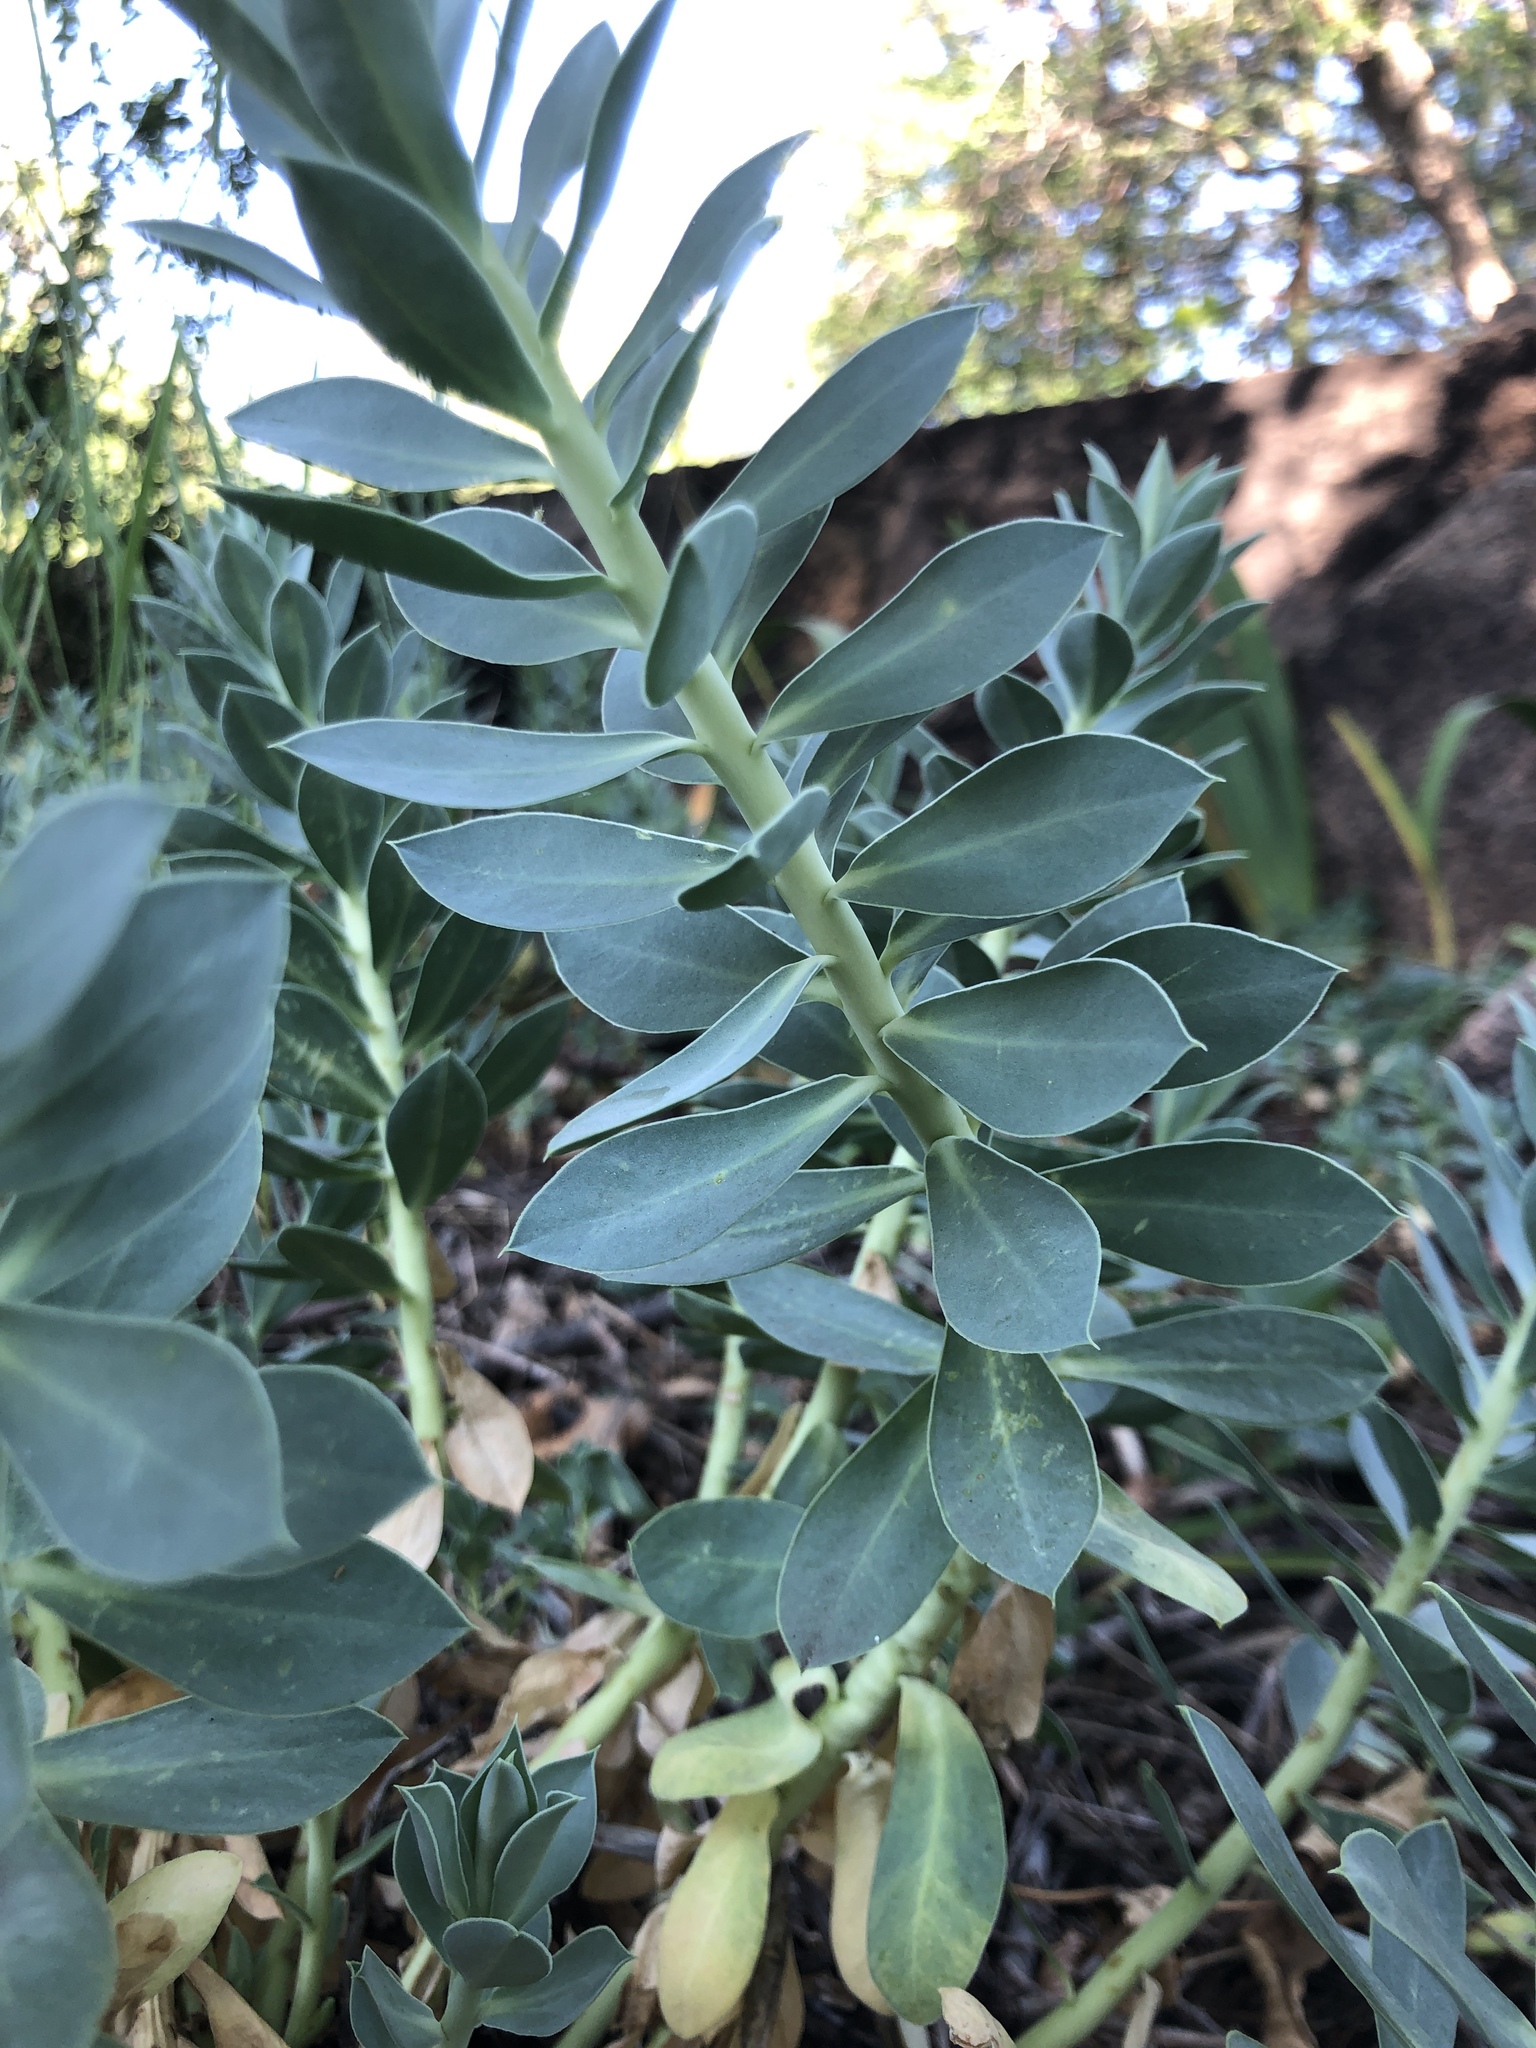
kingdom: Plantae
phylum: Tracheophyta
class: Magnoliopsida
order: Malpighiales
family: Euphorbiaceae
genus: Euphorbia
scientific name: Euphorbia myrsinites
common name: Myrtle spurge
